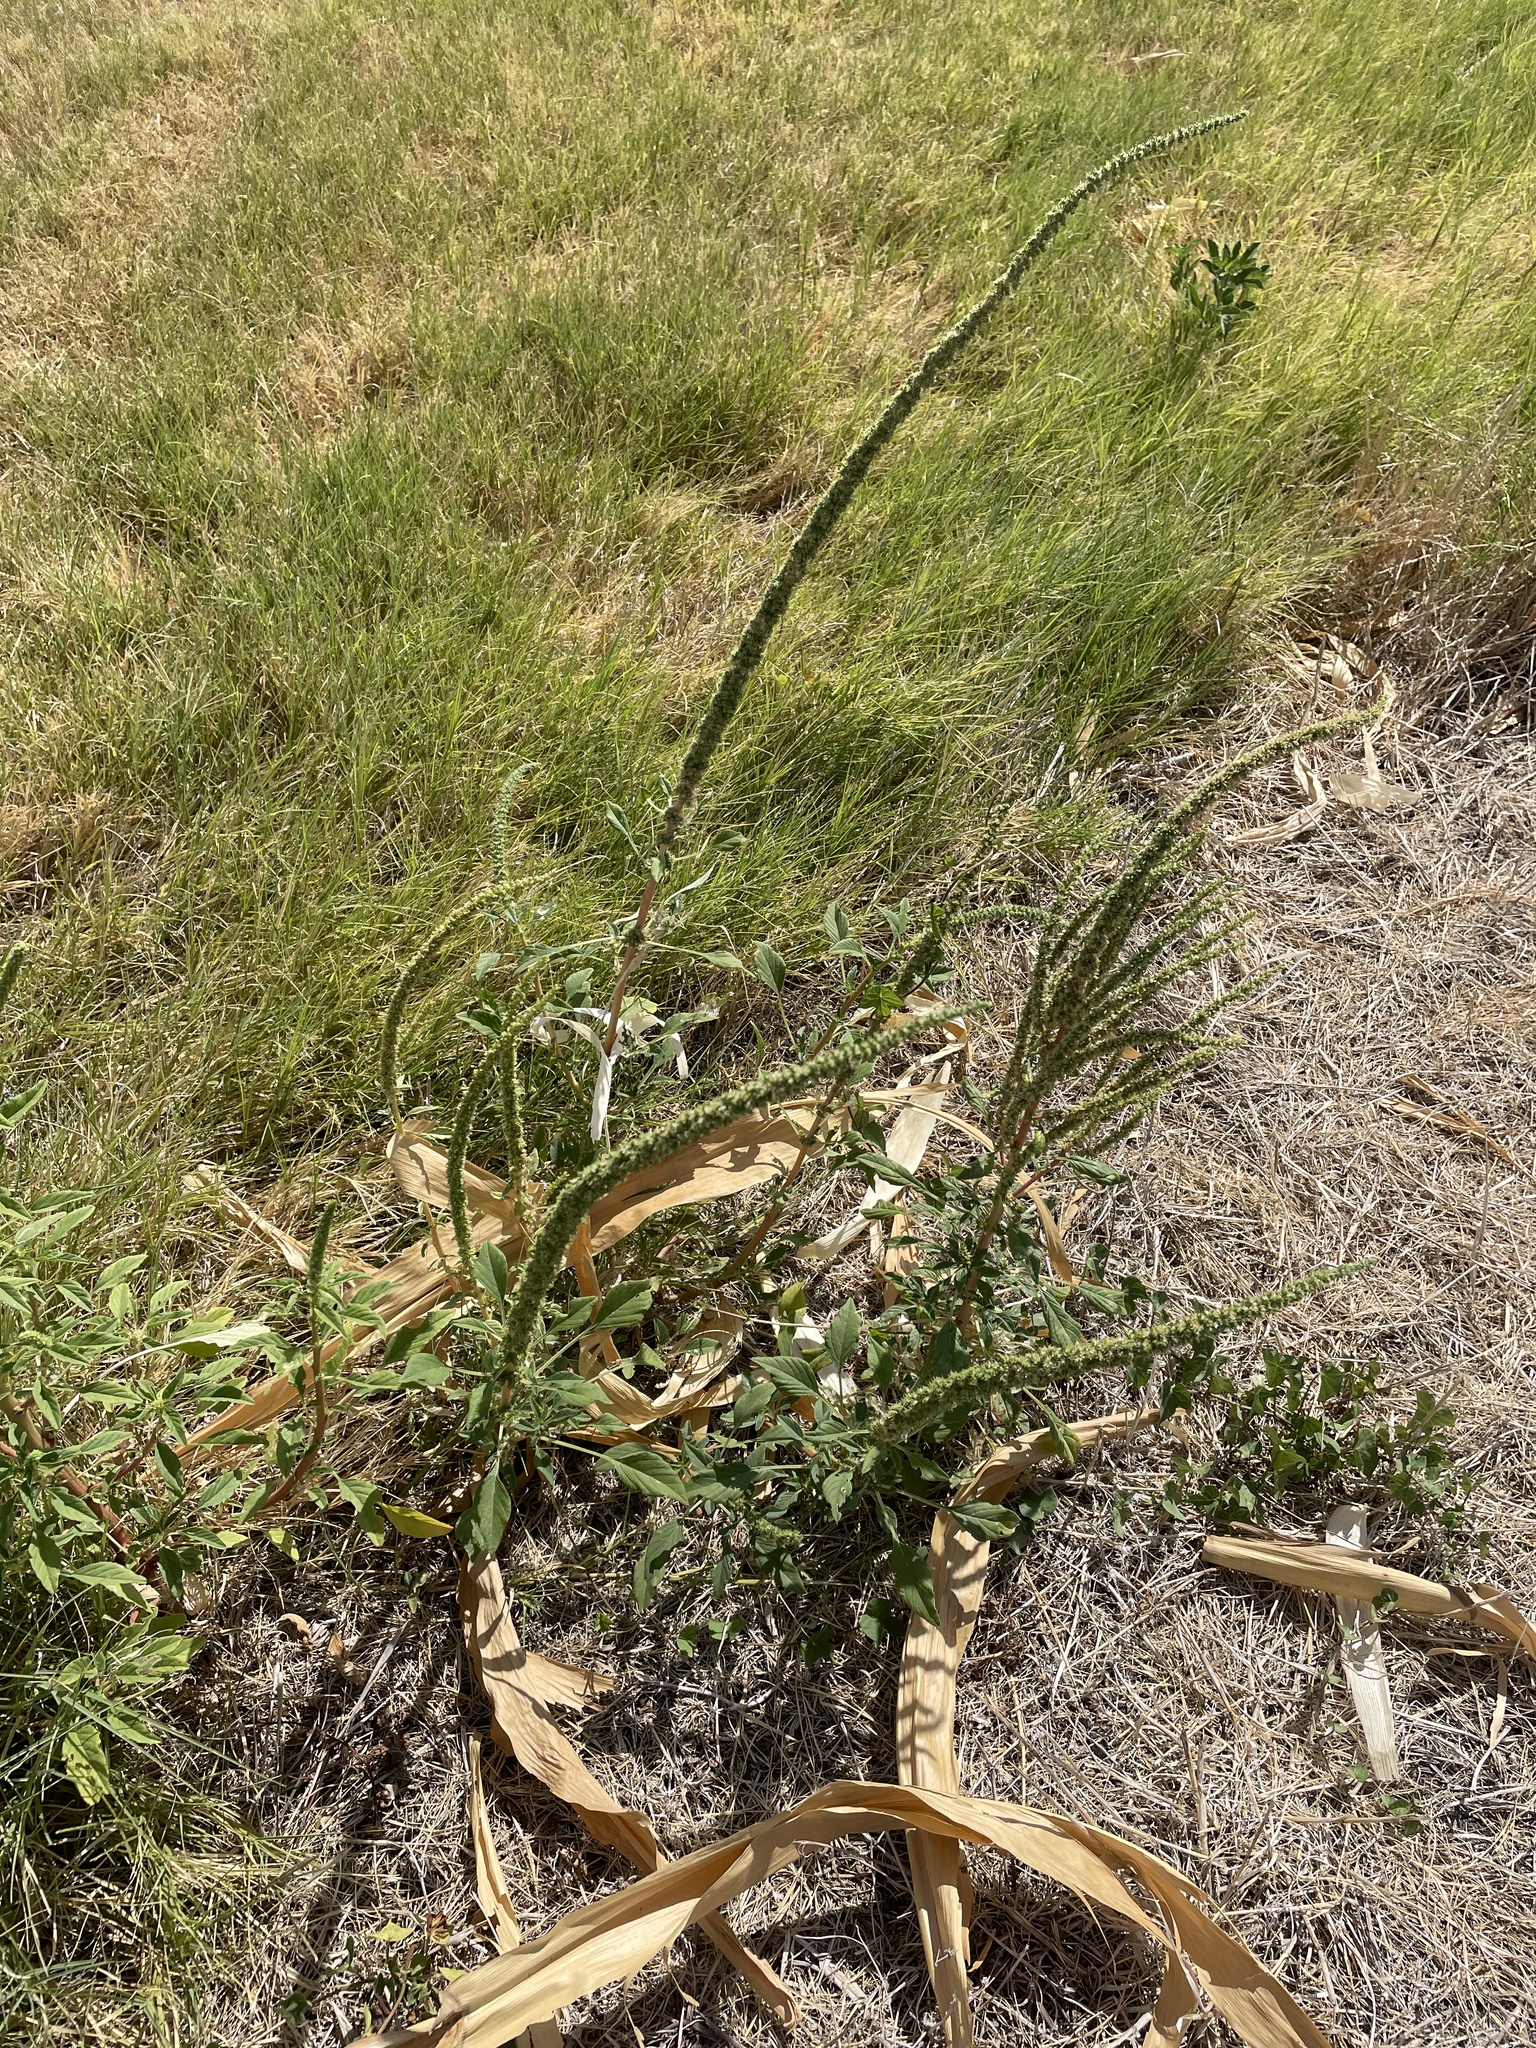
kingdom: Plantae
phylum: Tracheophyta
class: Magnoliopsida
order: Caryophyllales
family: Amaranthaceae
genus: Amaranthus
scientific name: Amaranthus palmeri
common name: Dioecious amaranth
